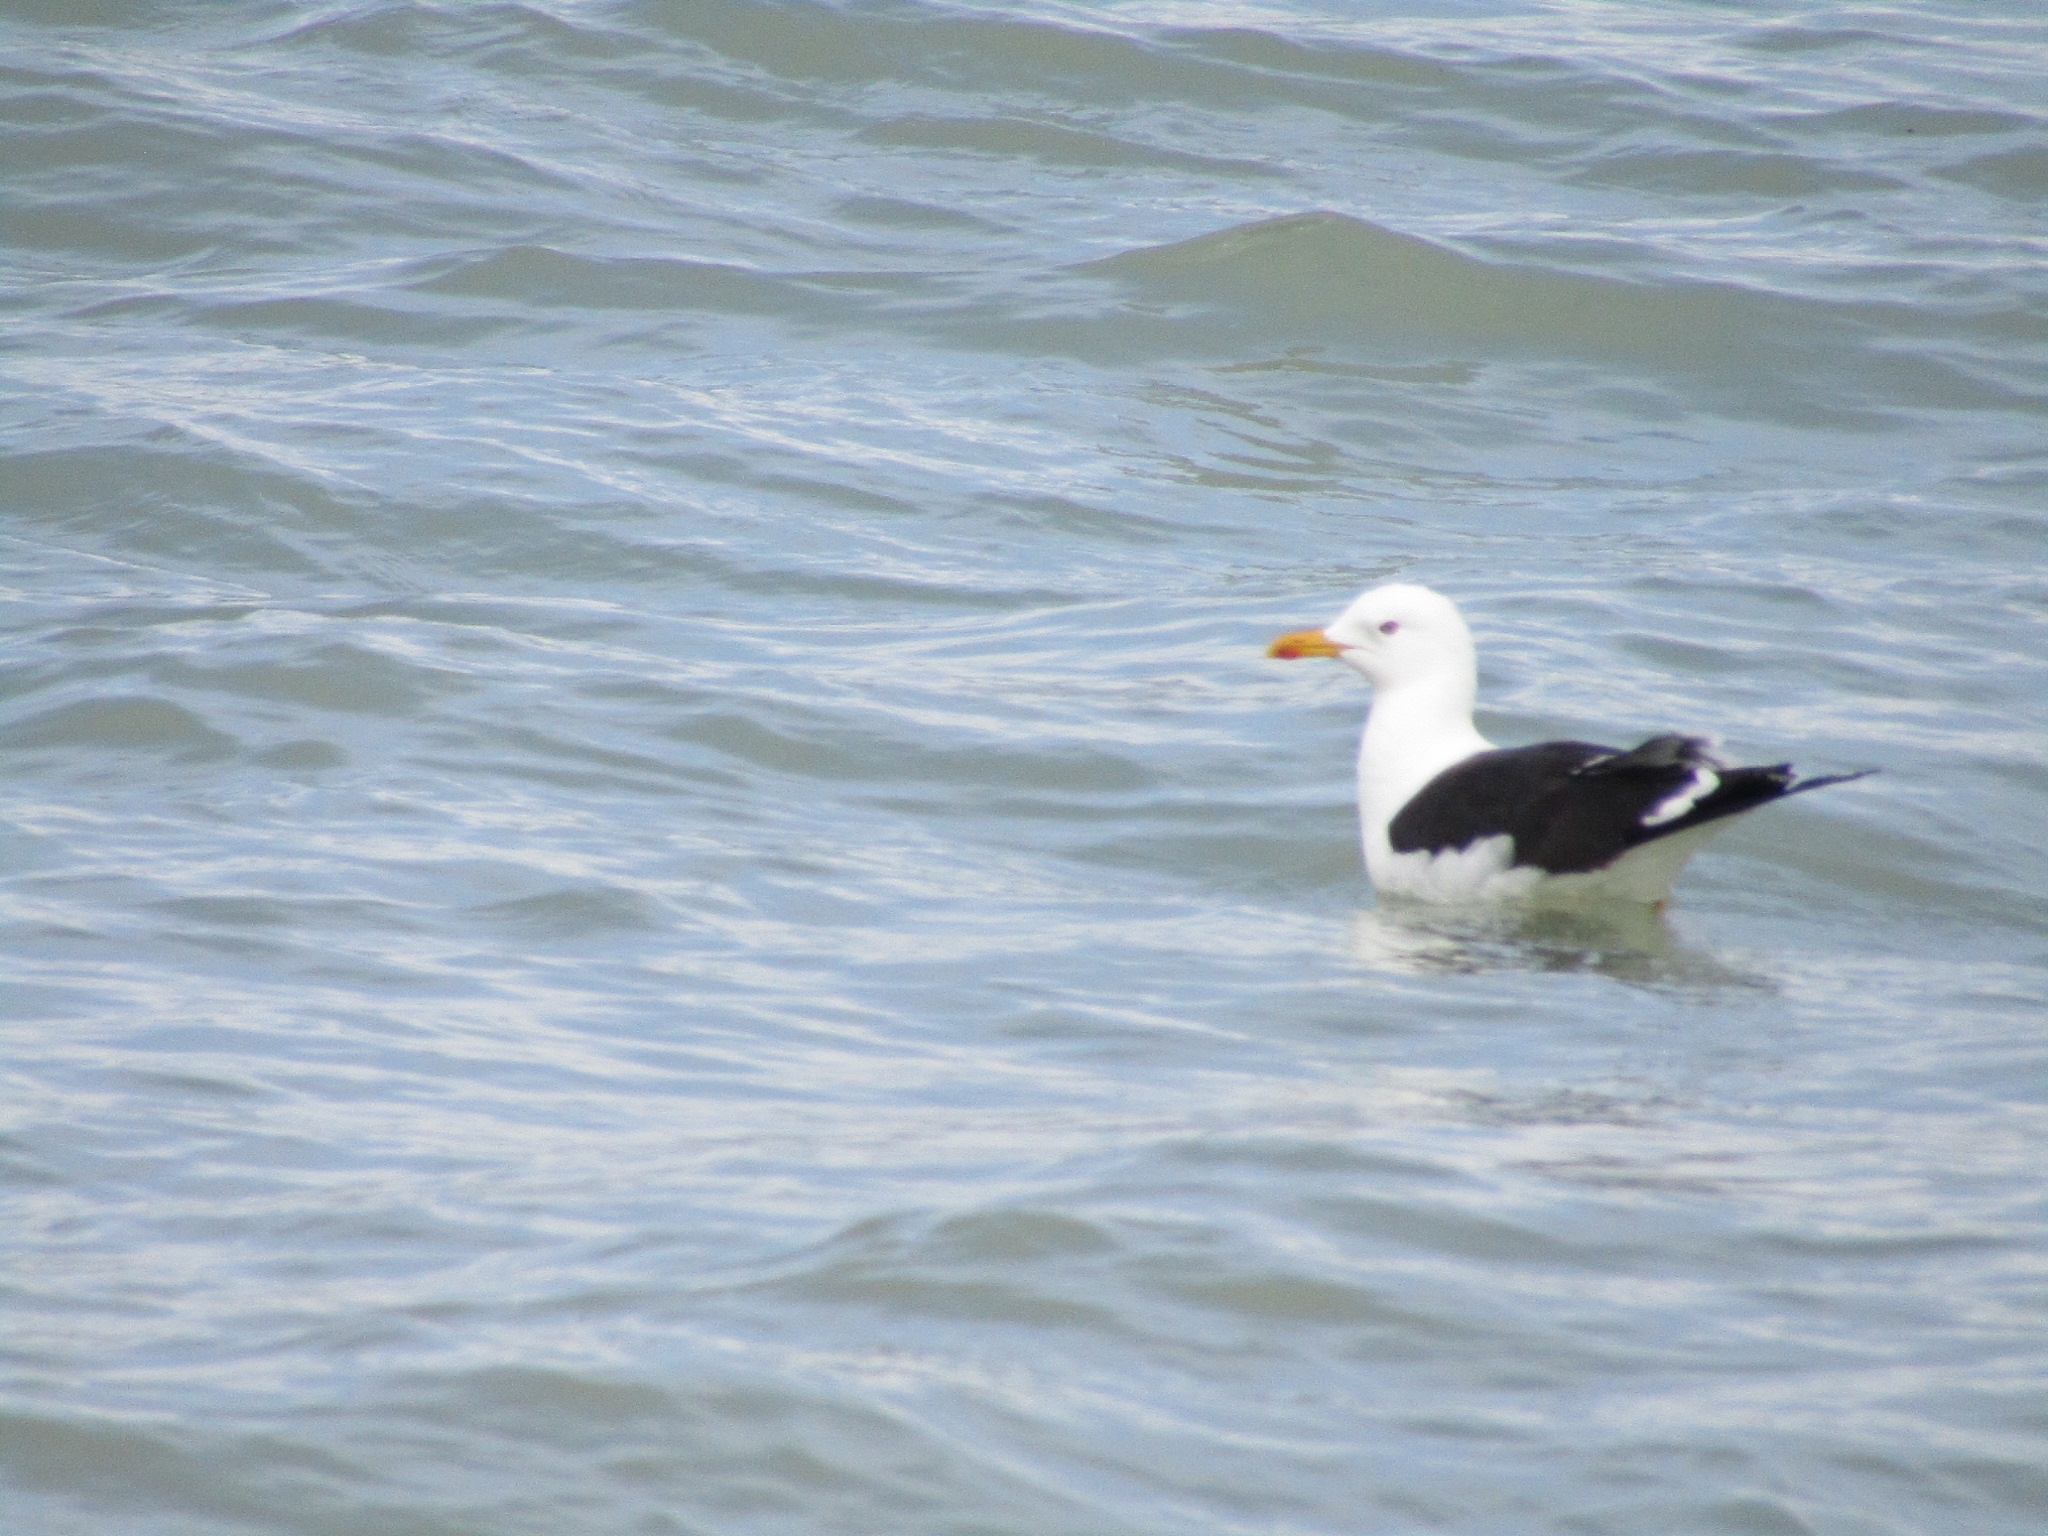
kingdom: Animalia
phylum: Chordata
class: Aves
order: Charadriiformes
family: Laridae
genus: Larus
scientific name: Larus fuscus
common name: Lesser black-backed gull
